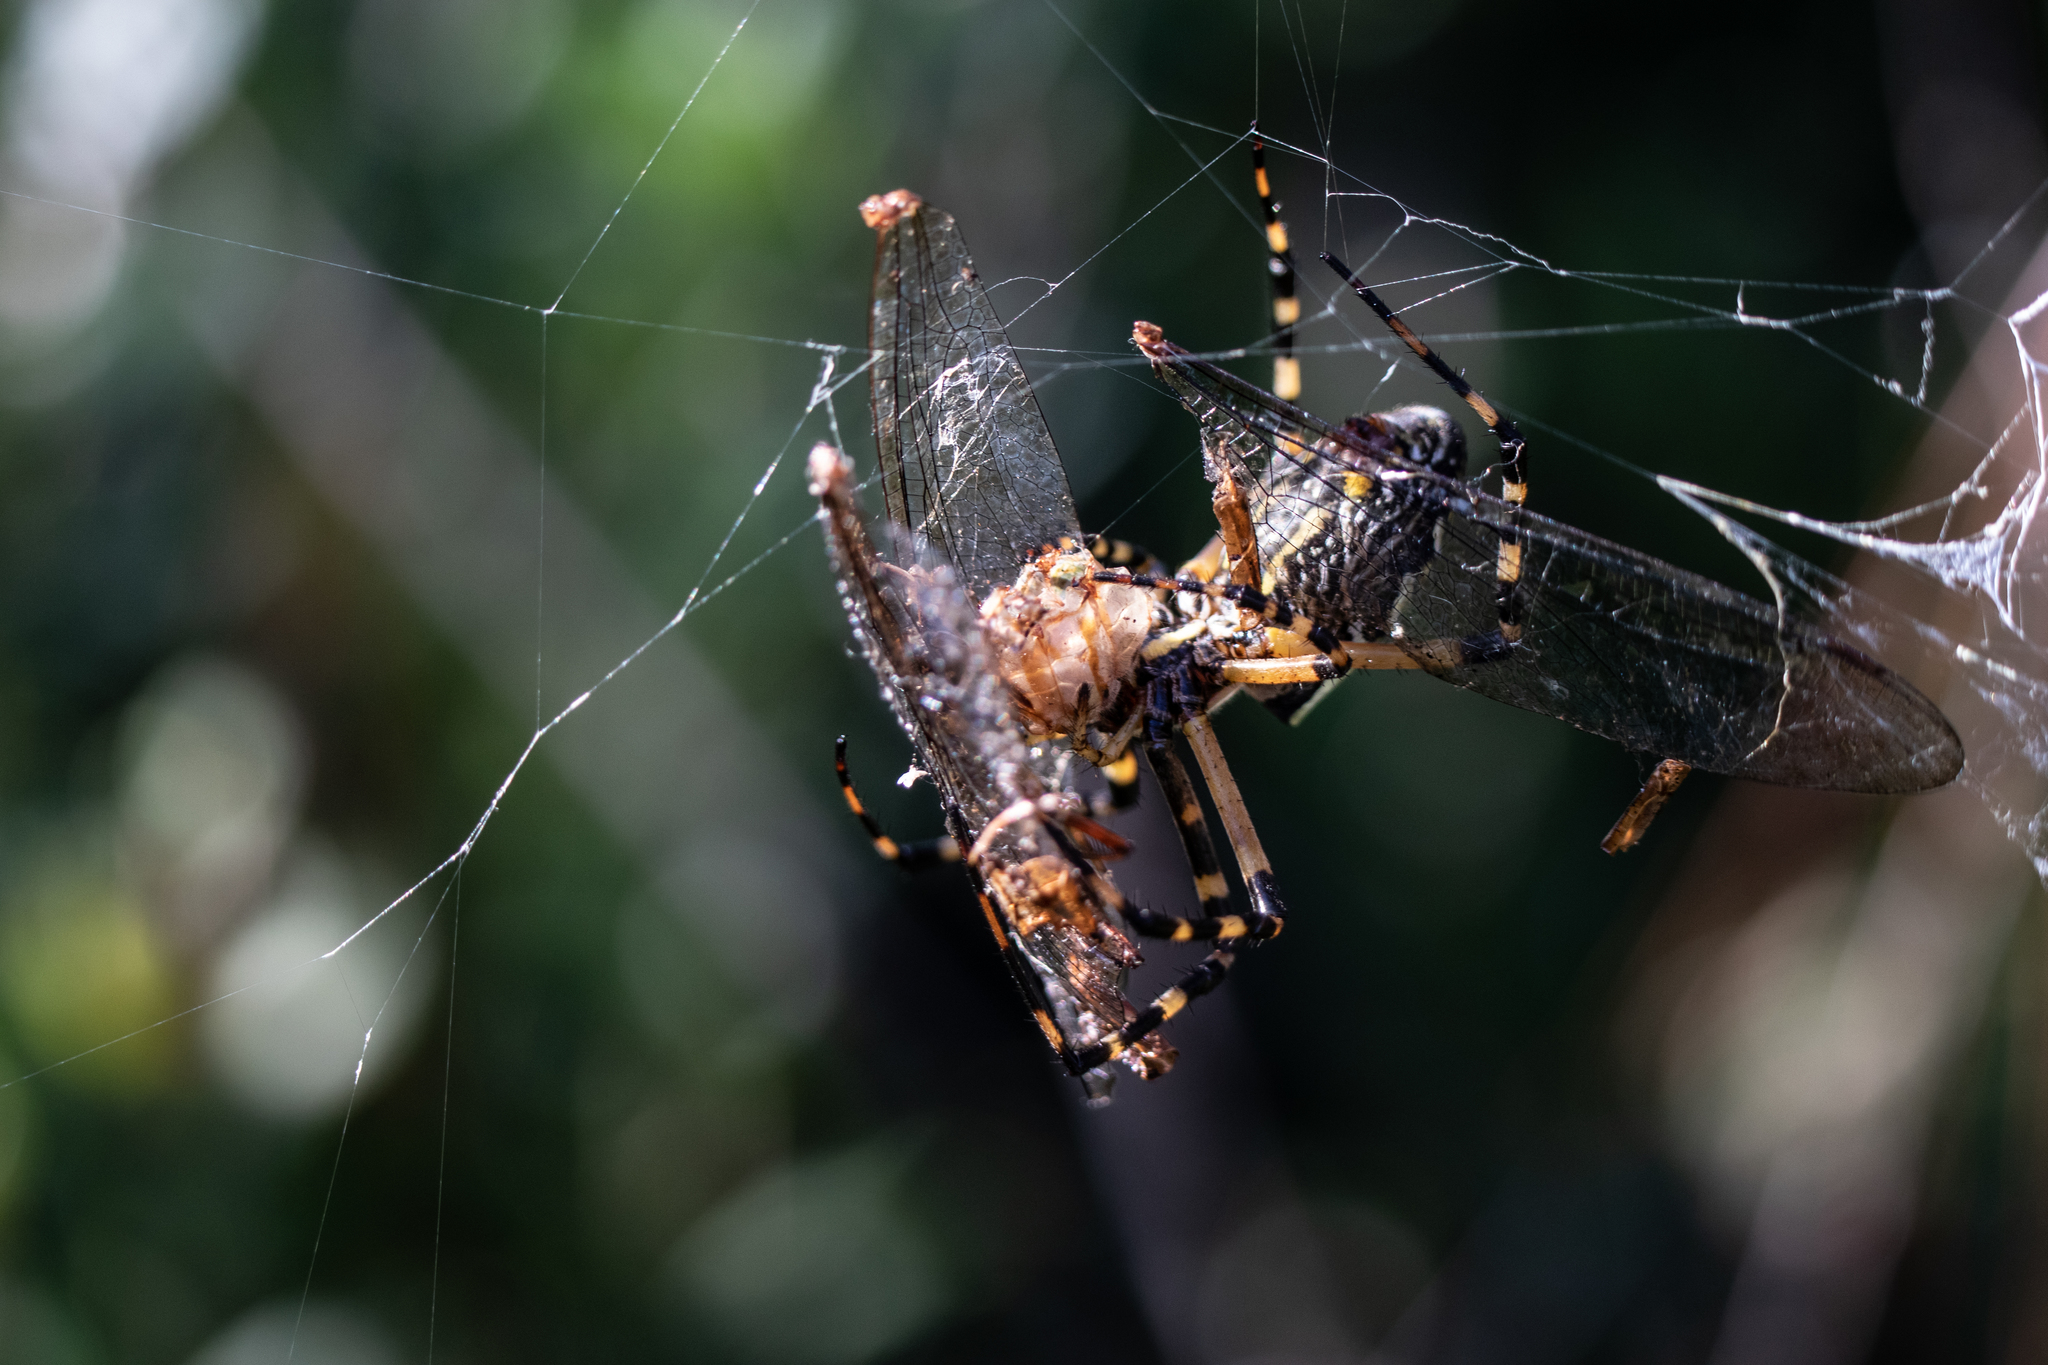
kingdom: Animalia
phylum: Arthropoda
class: Arachnida
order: Araneae
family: Araneidae
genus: Argiope
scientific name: Argiope aurantia
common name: Orb weavers
